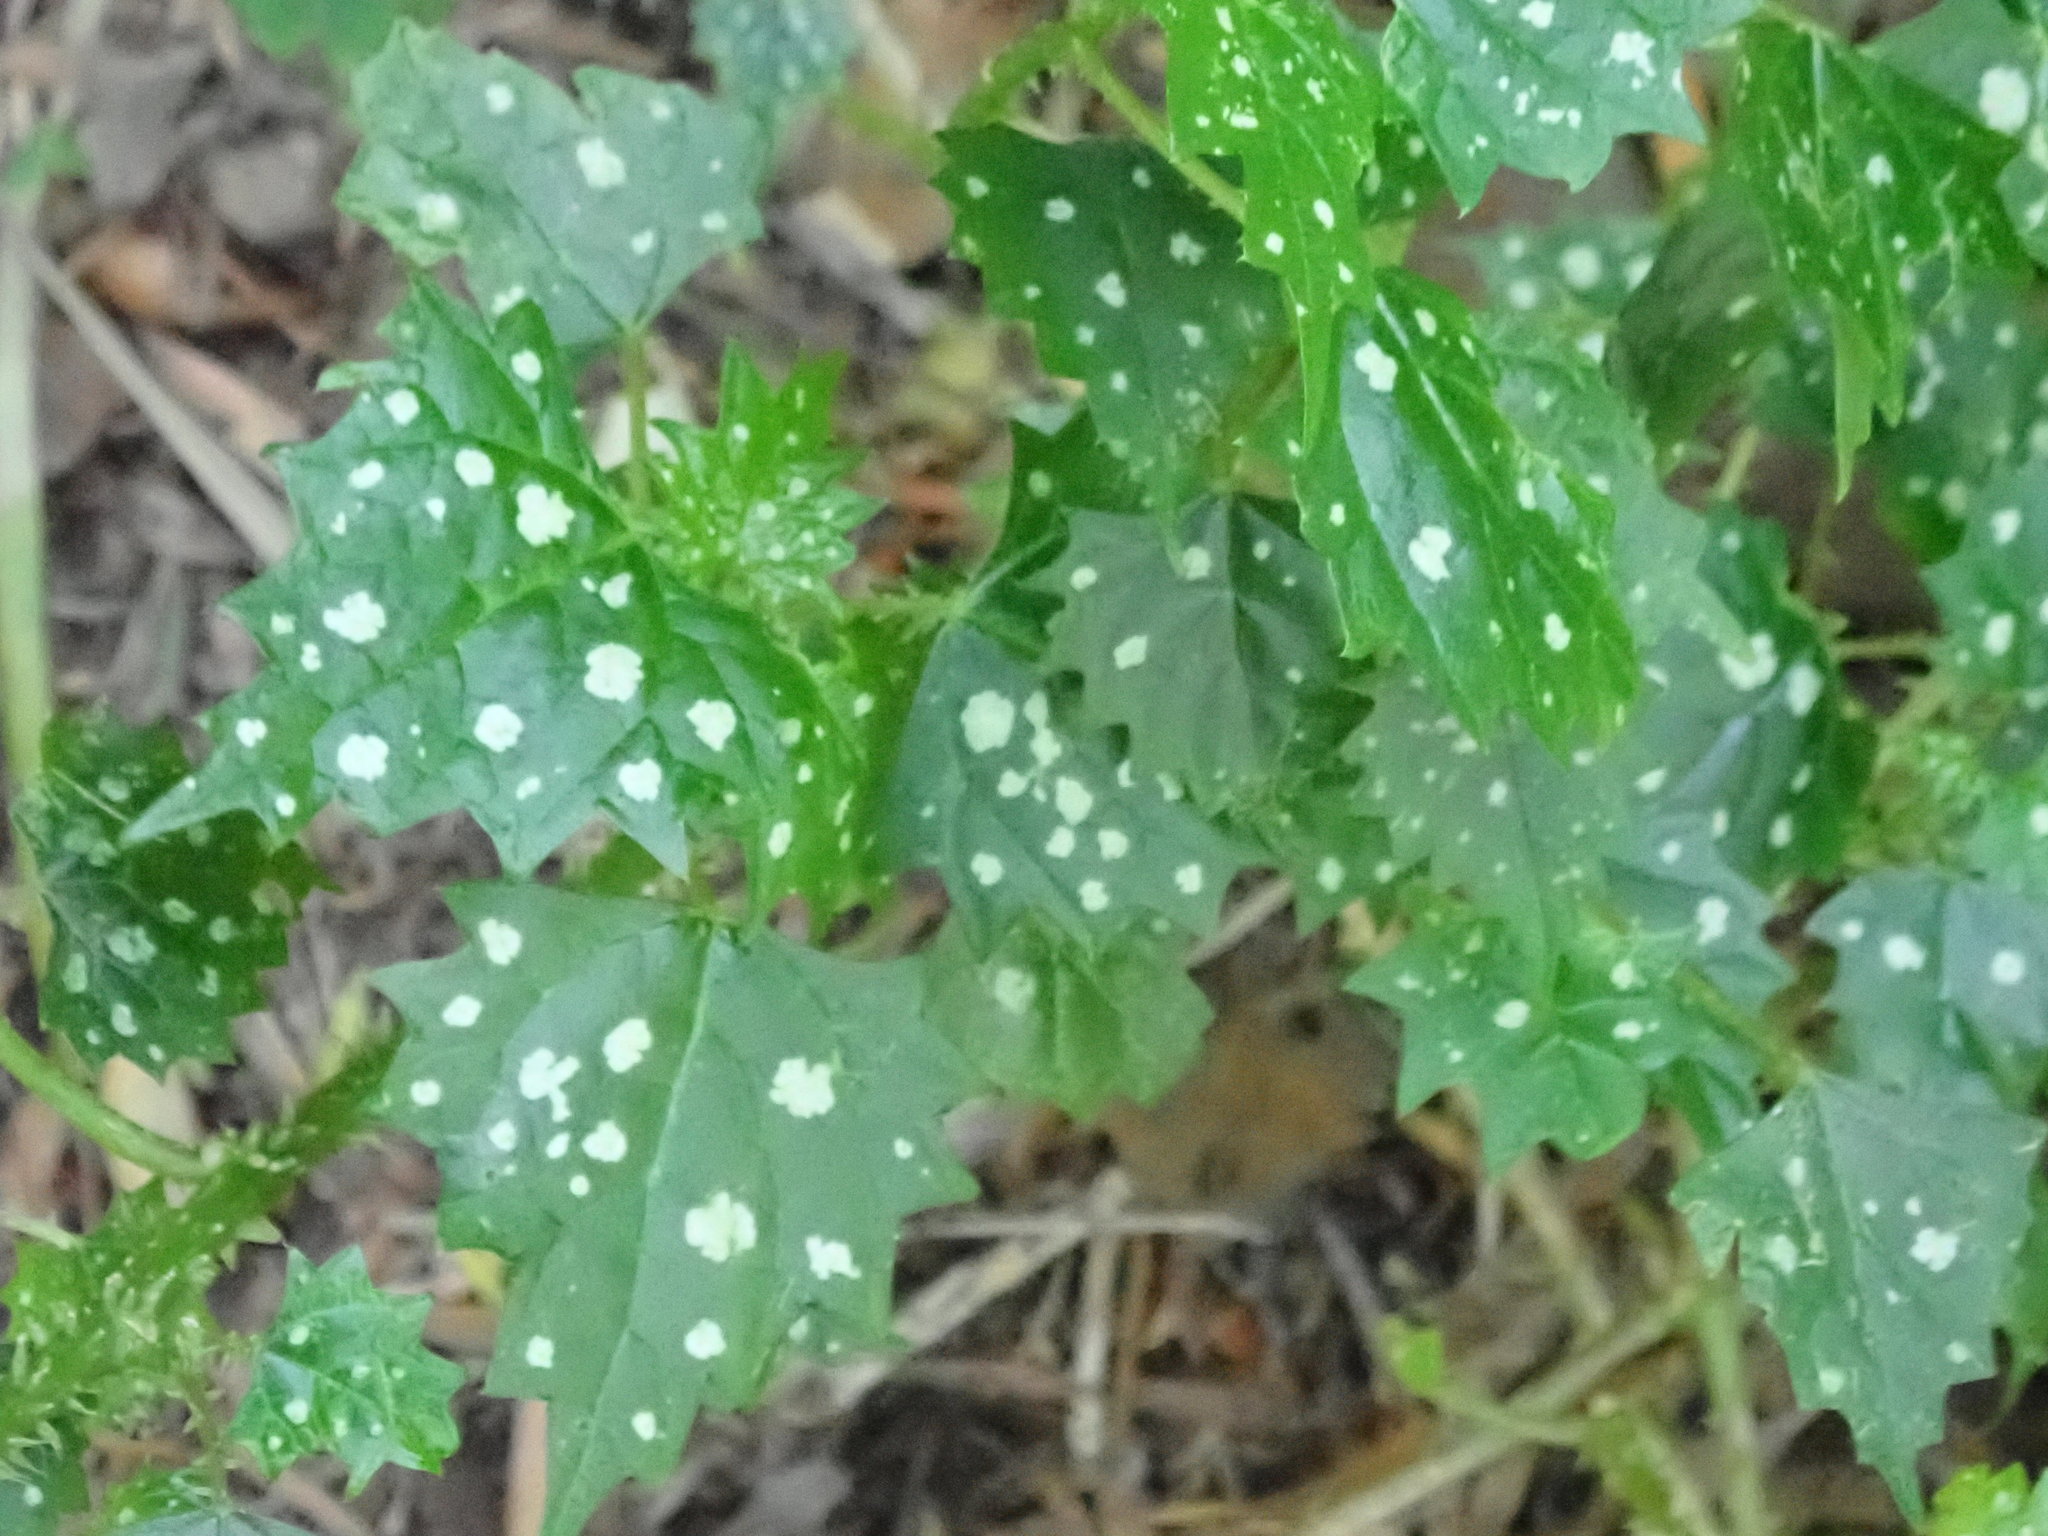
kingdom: Plantae
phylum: Tracheophyta
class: Magnoliopsida
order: Rosales
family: Urticaceae
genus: Laportea
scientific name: Laportea grossa
